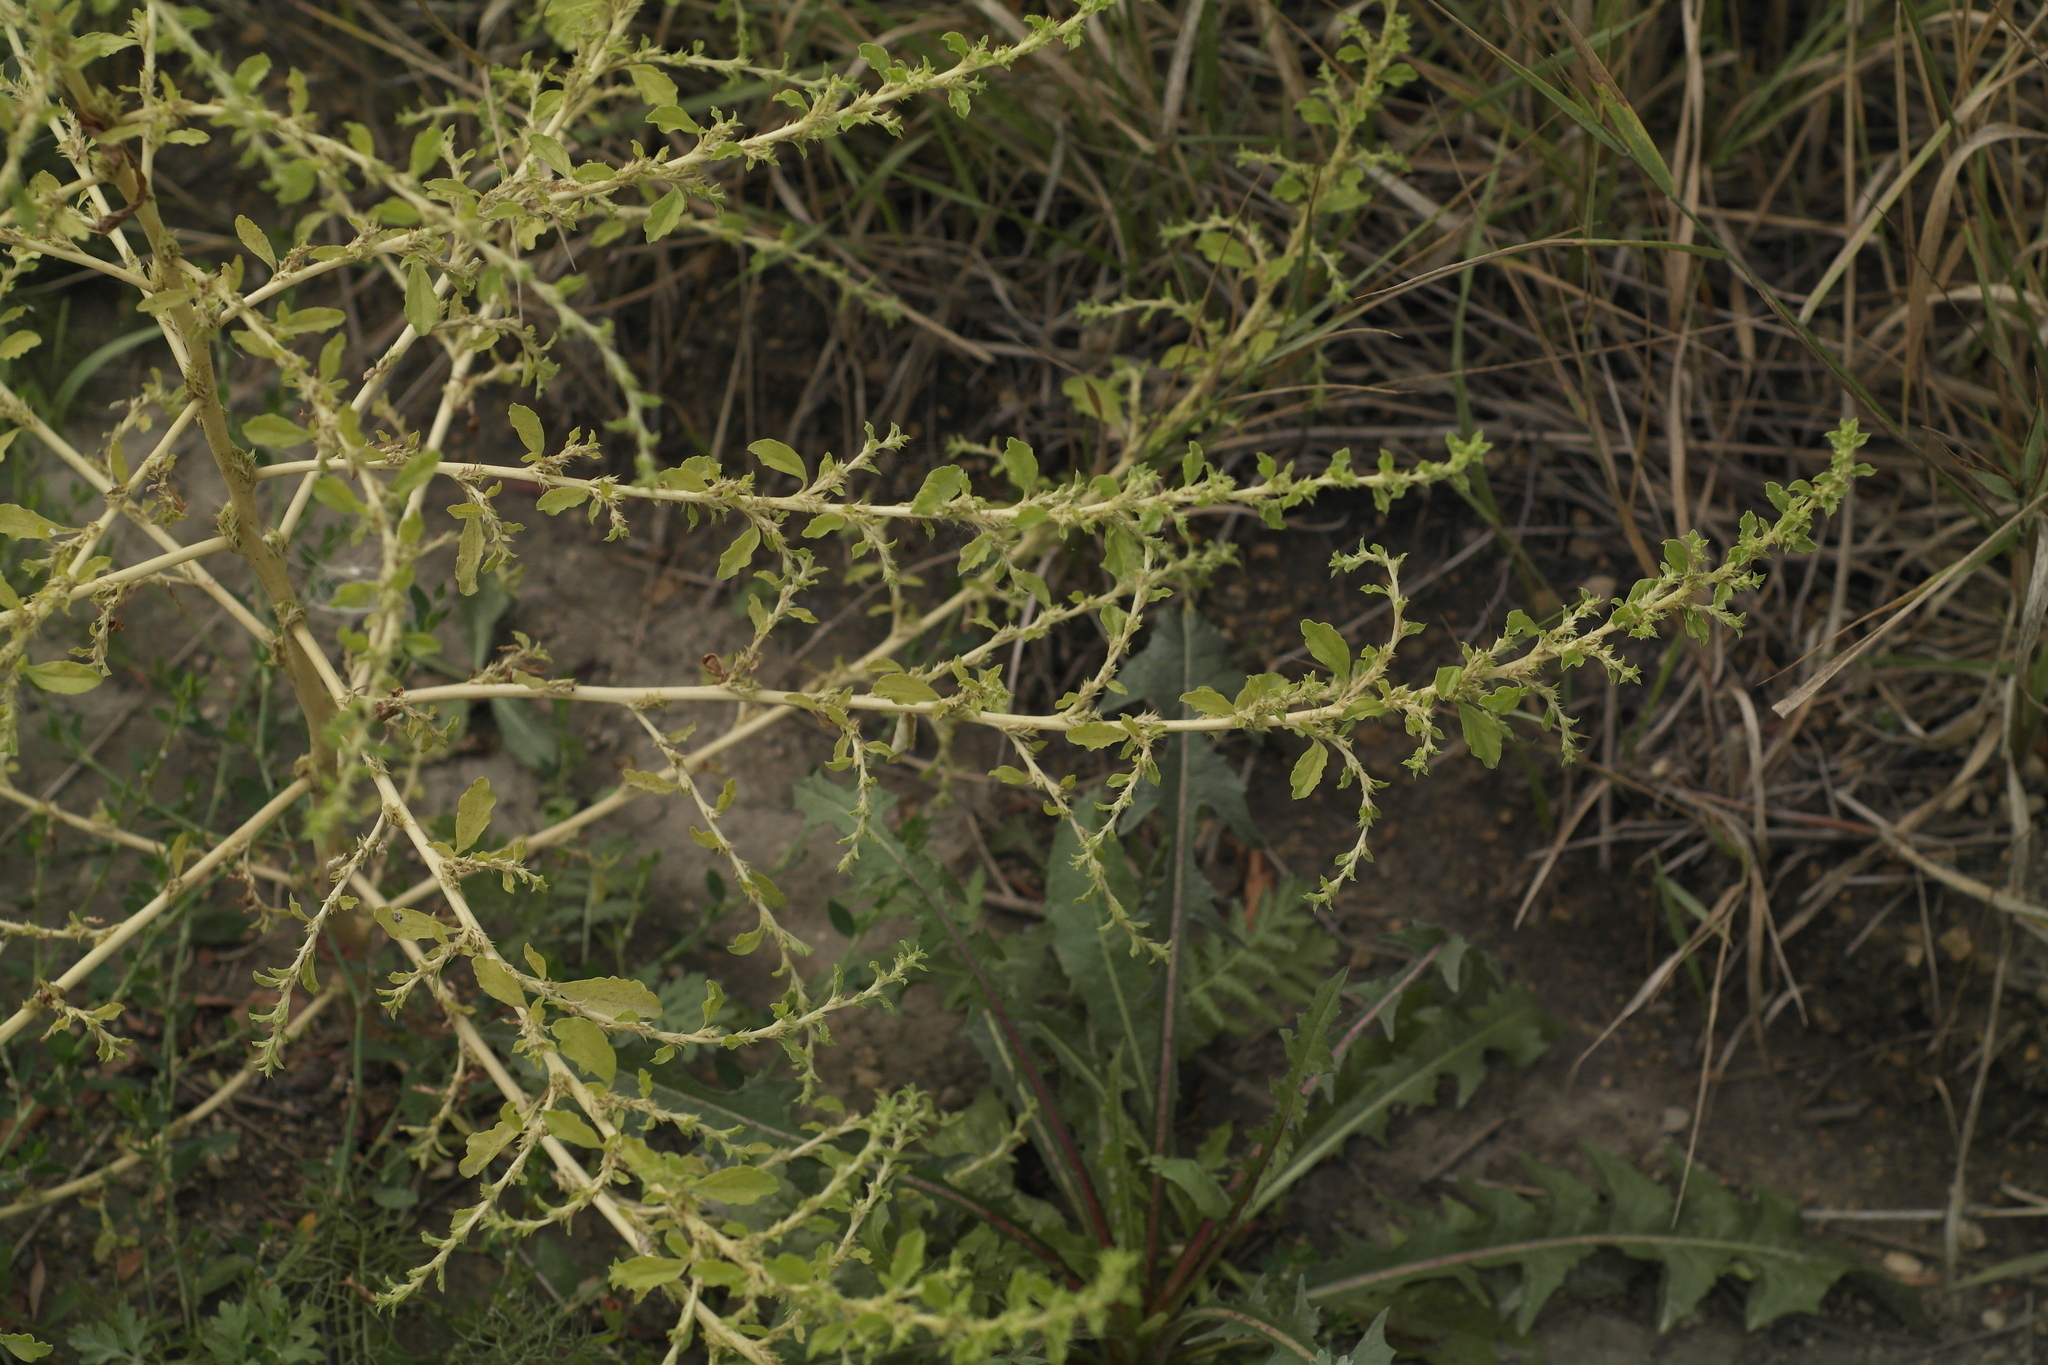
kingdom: Plantae
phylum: Tracheophyta
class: Magnoliopsida
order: Caryophyllales
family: Amaranthaceae
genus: Amaranthus
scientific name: Amaranthus albus
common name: White pigweed
